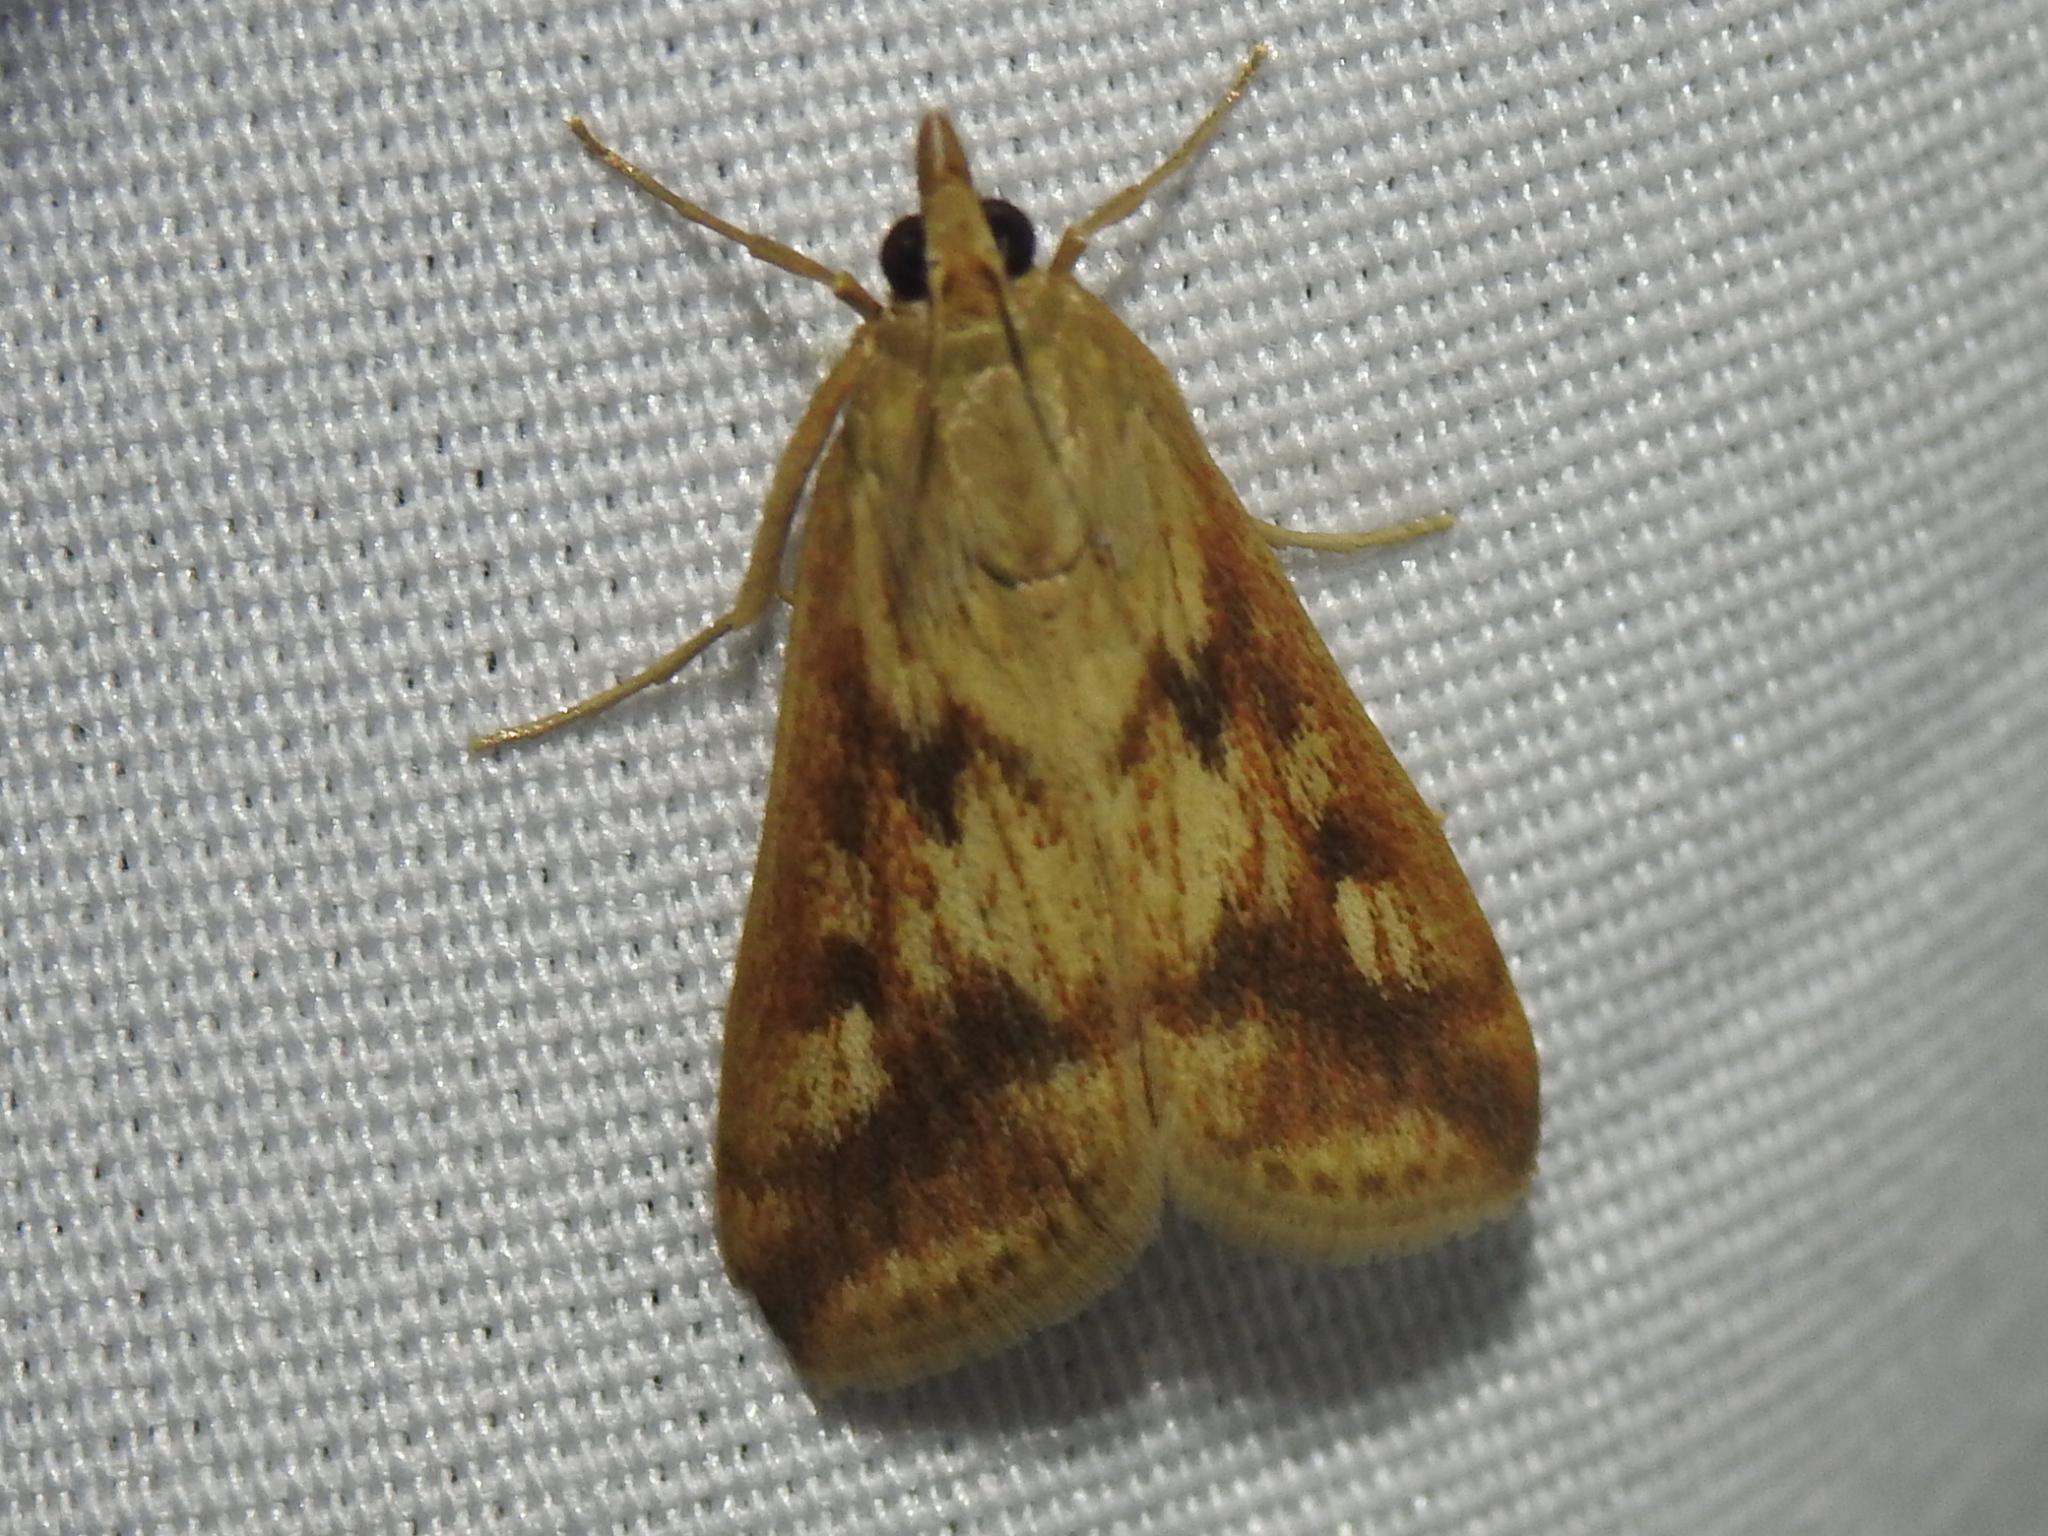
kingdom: Animalia
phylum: Arthropoda
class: Insecta
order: Lepidoptera
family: Crambidae
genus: Achyra
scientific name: Achyra bifidalis
